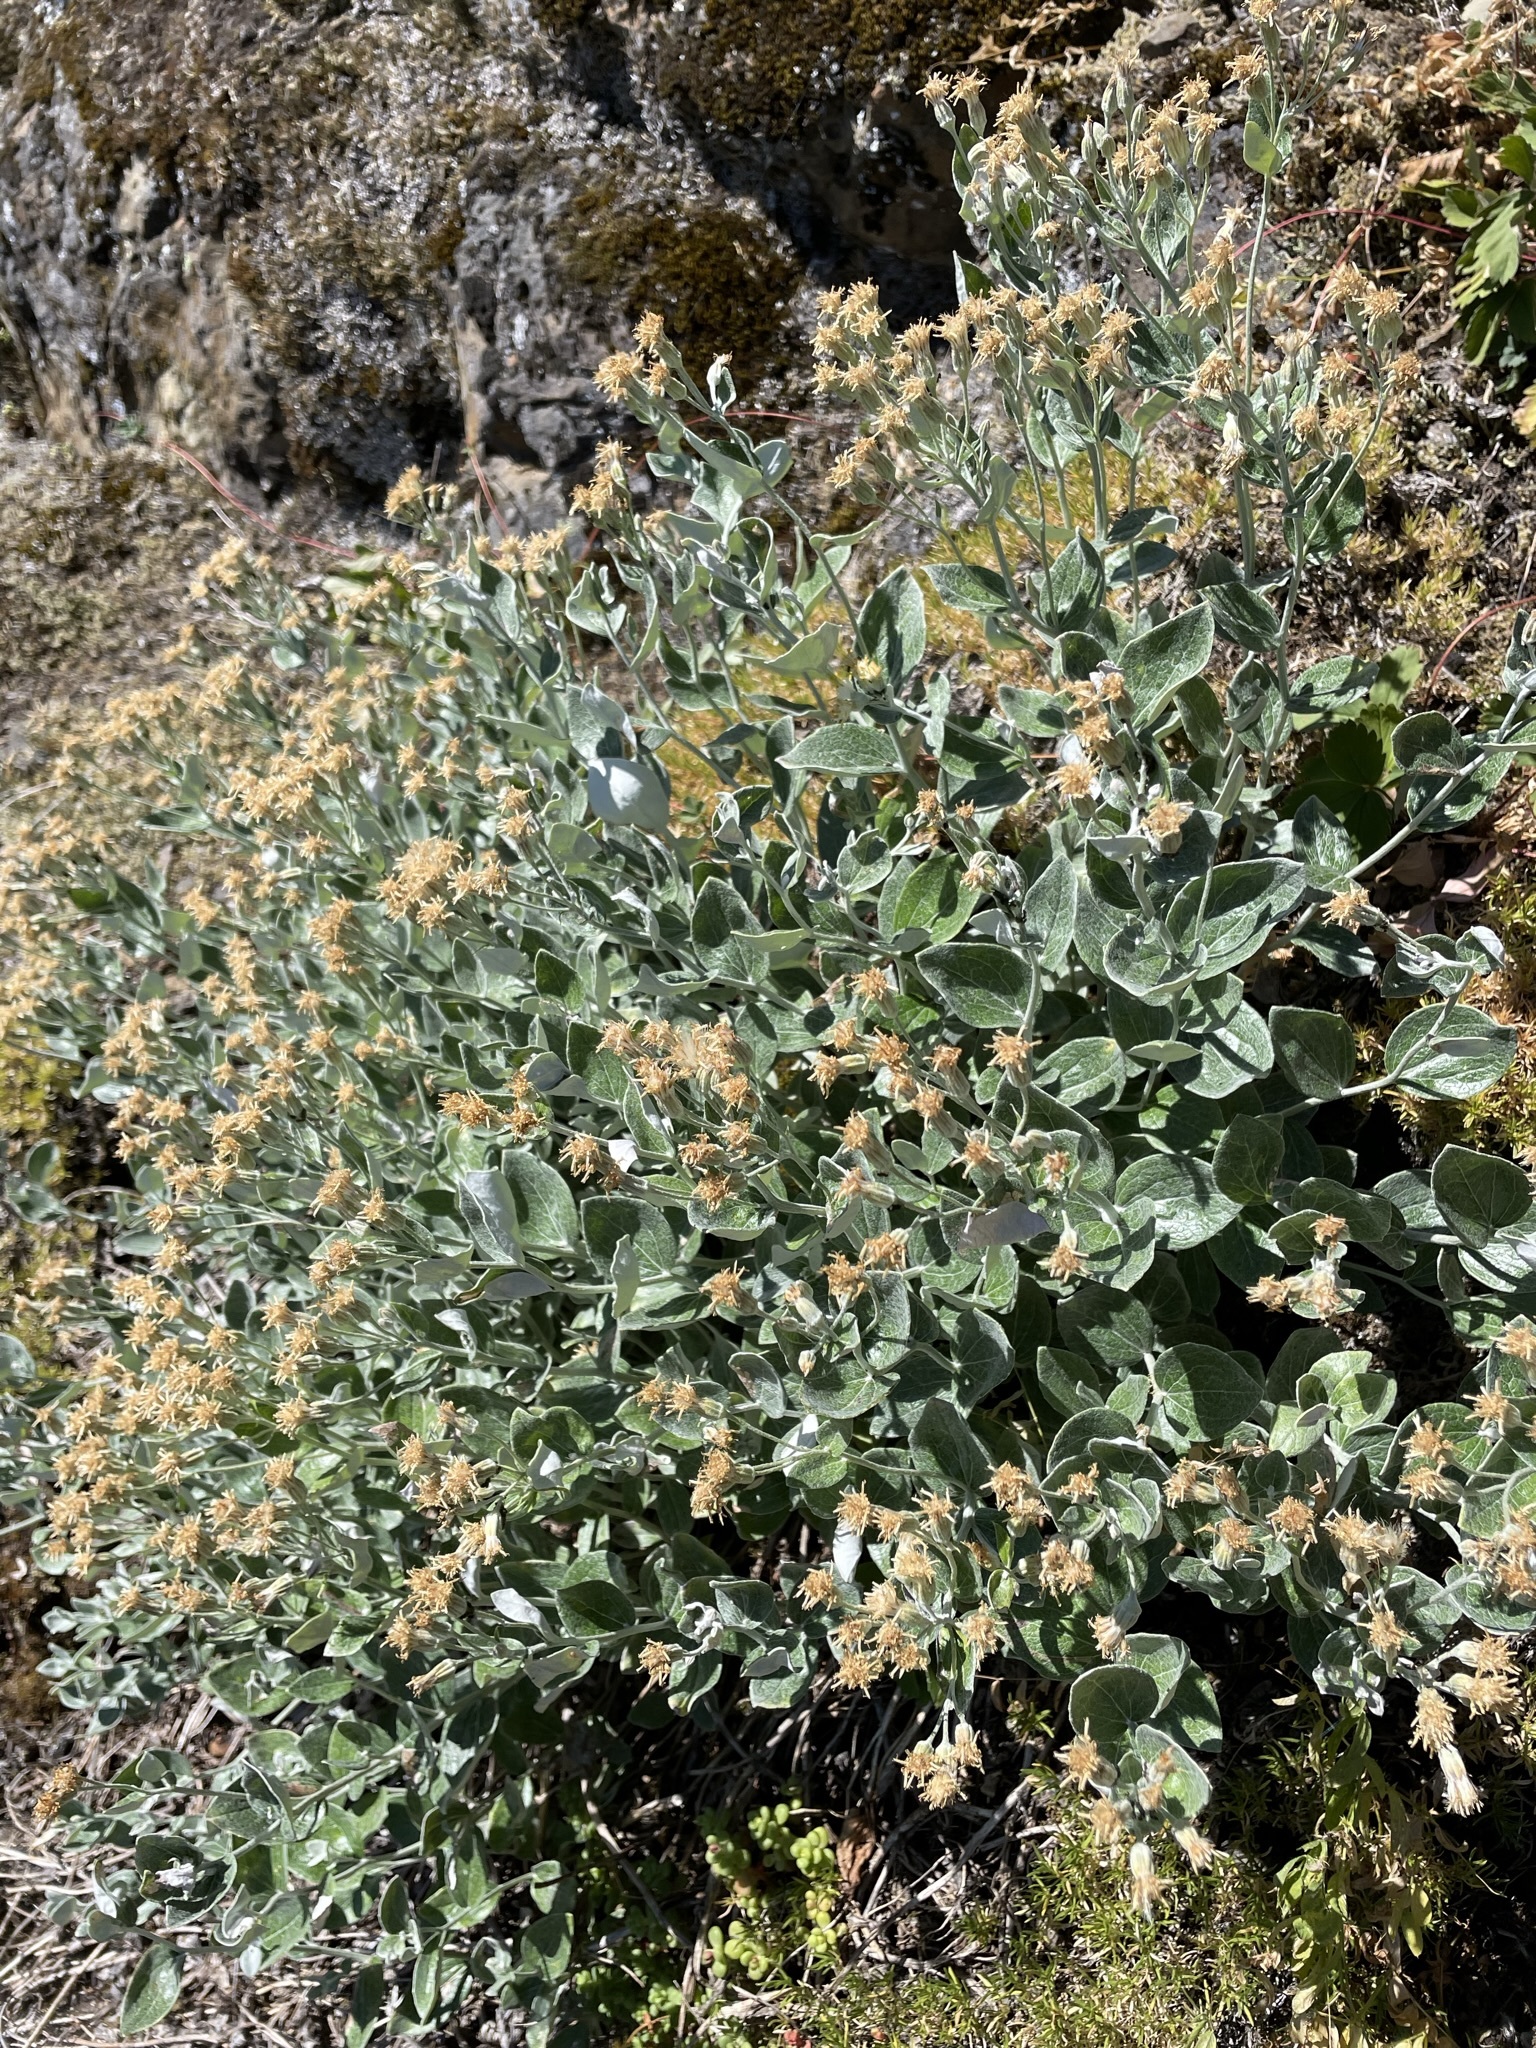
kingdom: Plantae
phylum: Tracheophyta
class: Magnoliopsida
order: Asterales
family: Asteraceae
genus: Luina
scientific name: Luina hypoleuca
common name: Little-leaved luina
